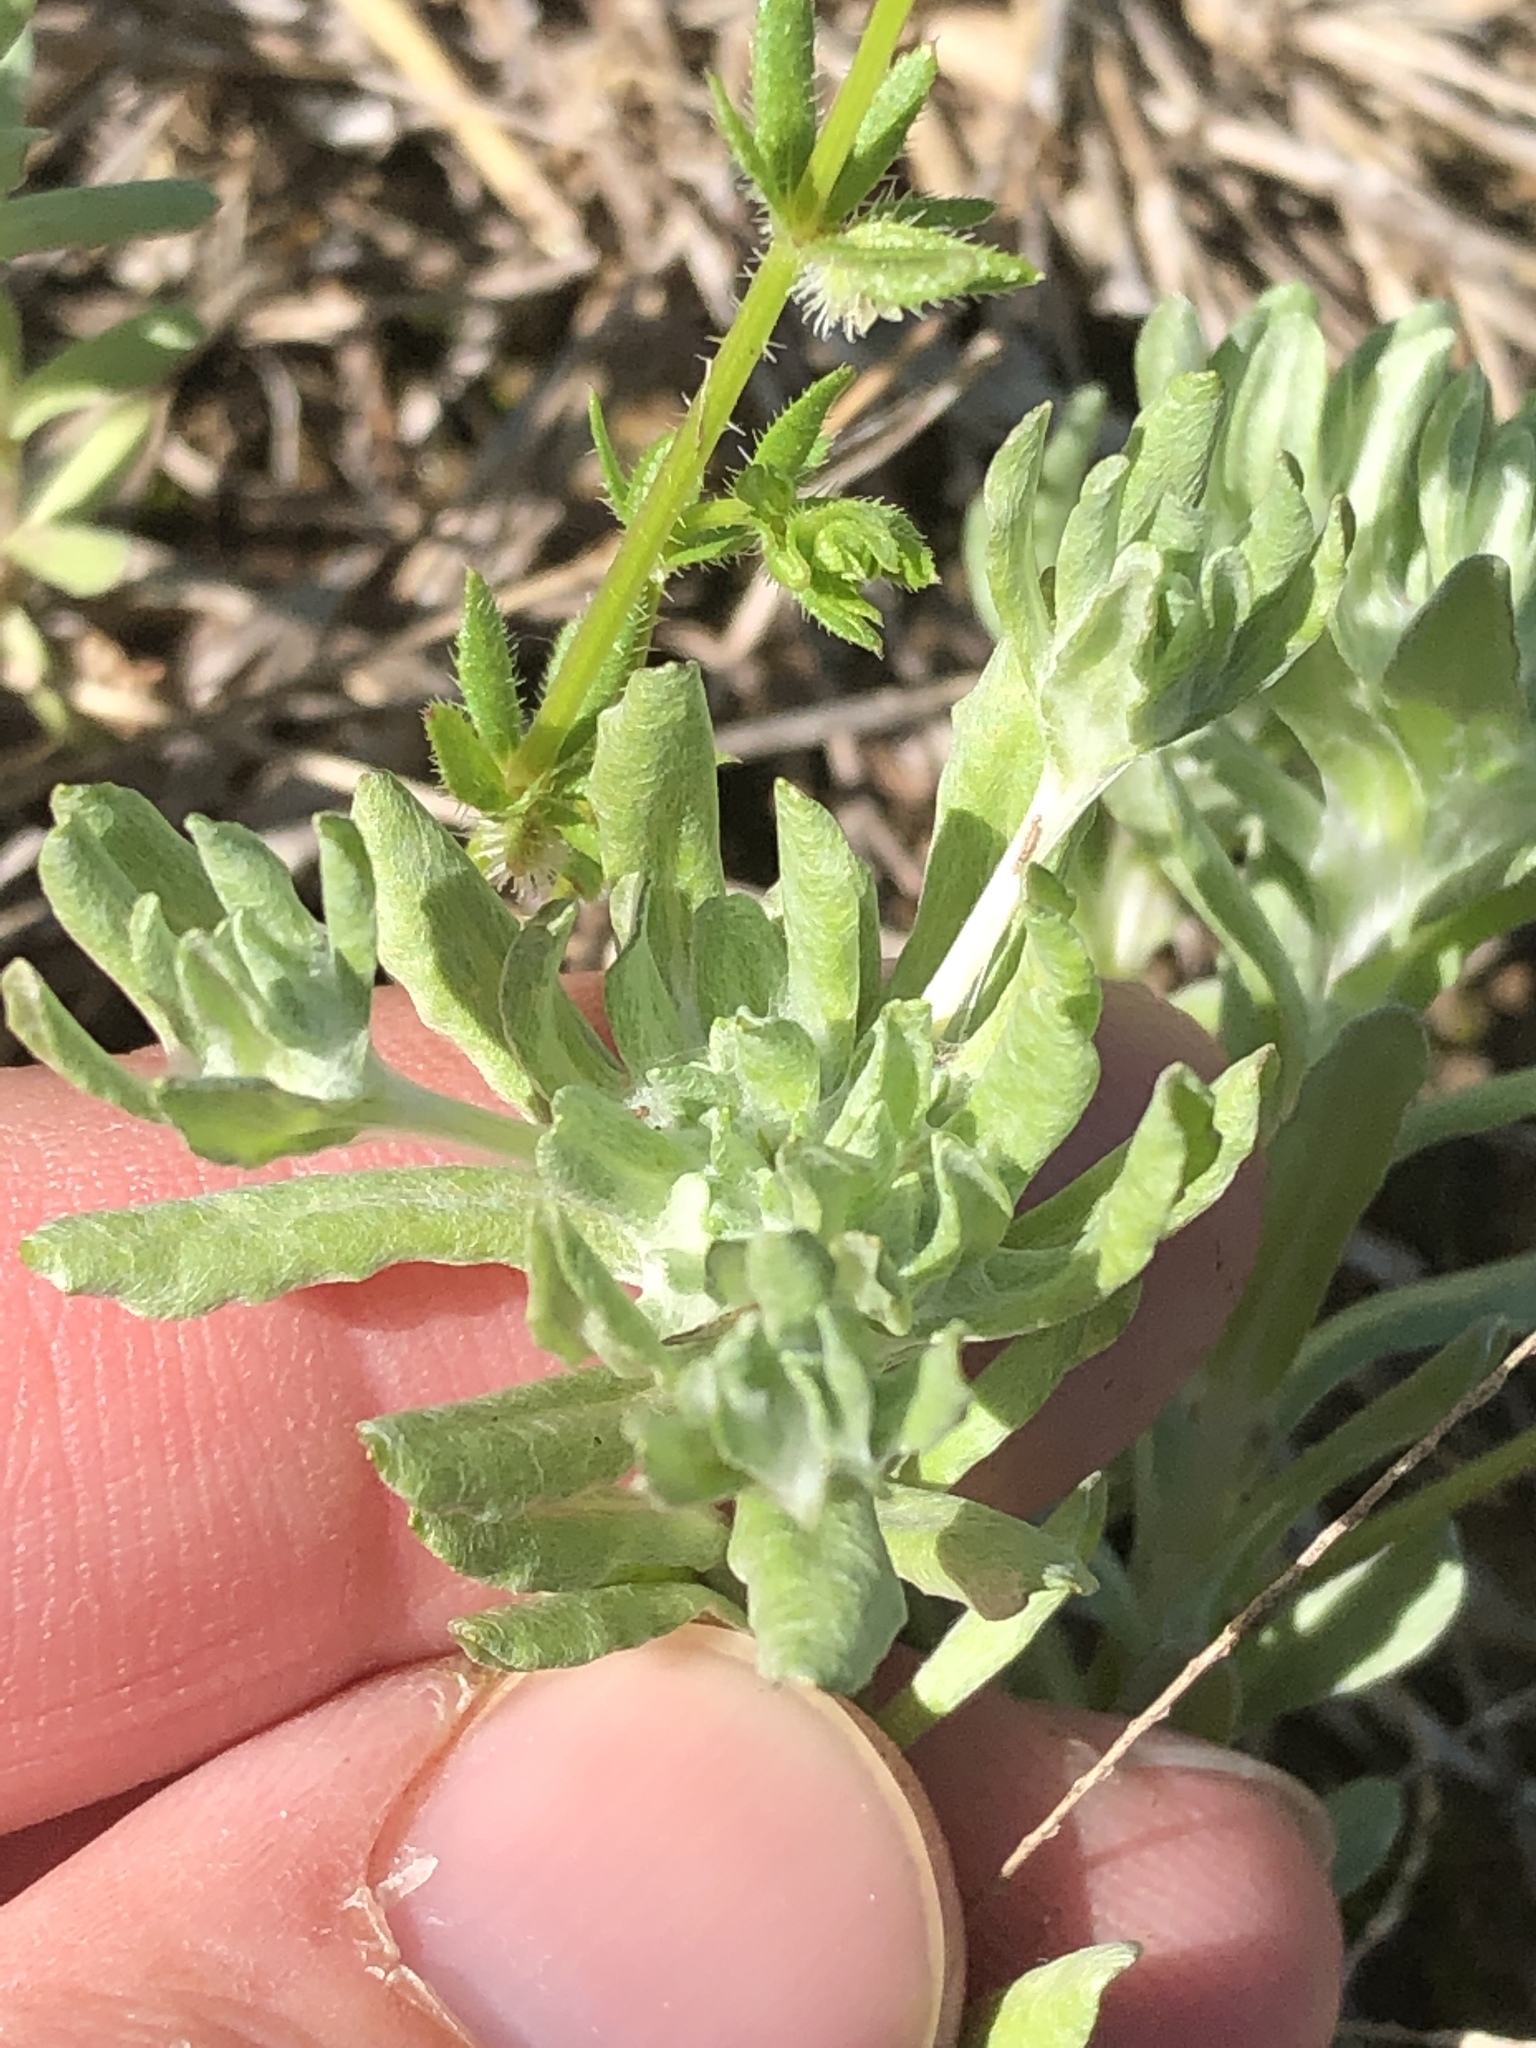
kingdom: Plantae
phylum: Tracheophyta
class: Magnoliopsida
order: Asterales
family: Asteraceae
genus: Diaperia
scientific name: Diaperia prolifera
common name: Big-head rabbit-tobacco
